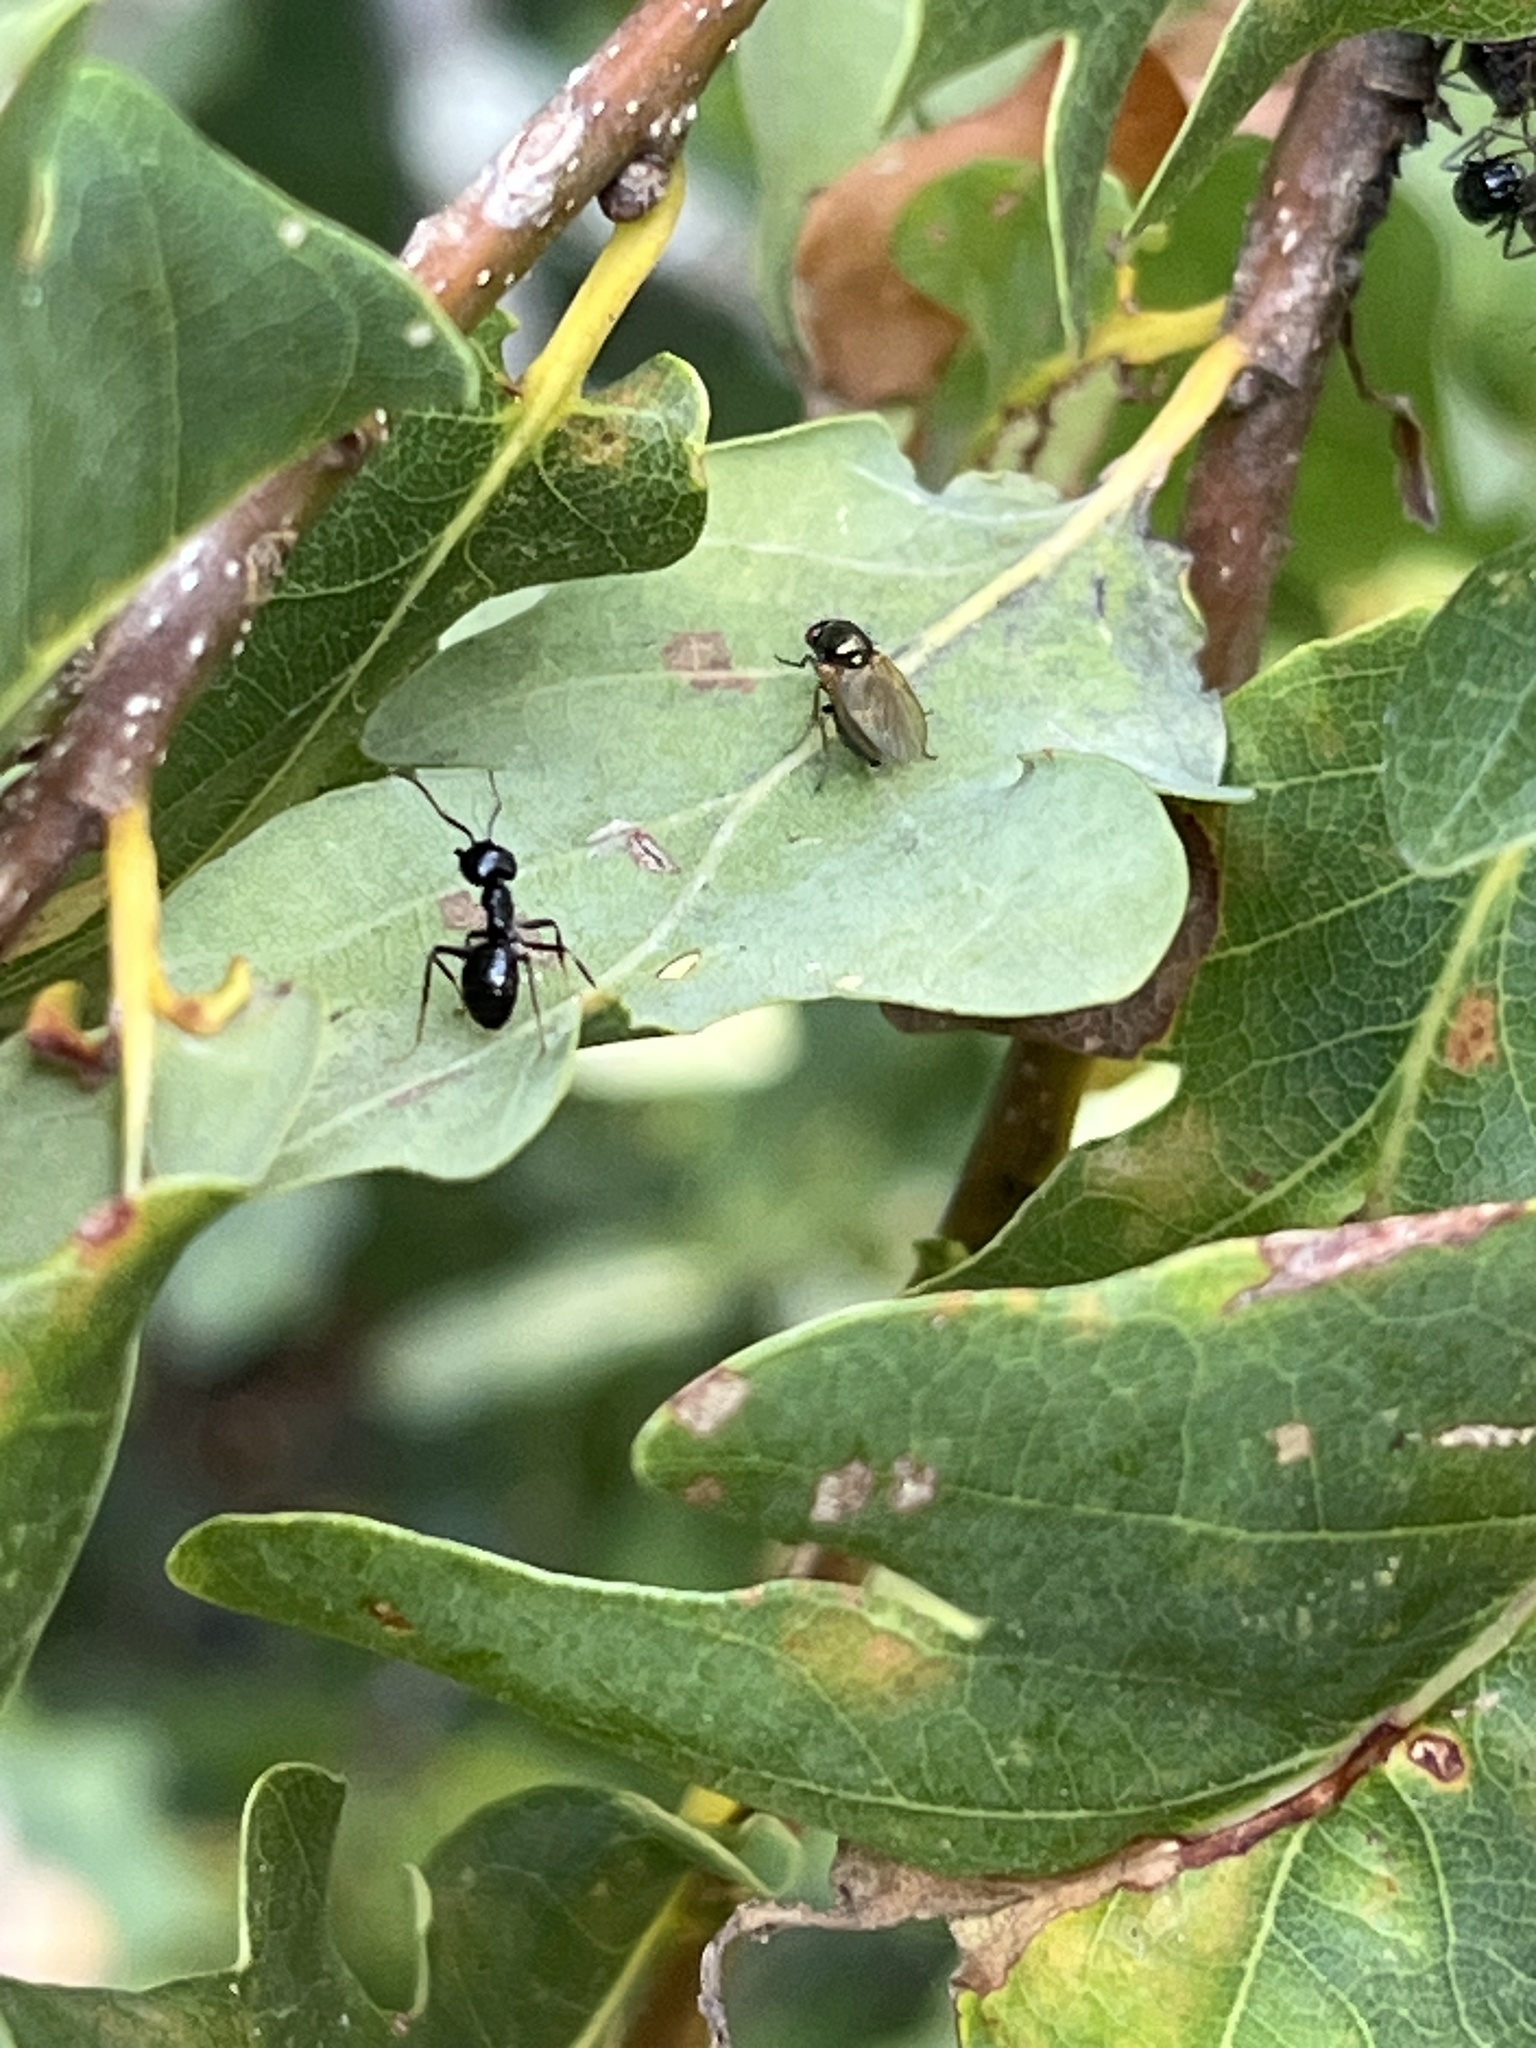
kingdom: Animalia
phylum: Arthropoda
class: Insecta
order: Hymenoptera
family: Formicidae
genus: Lasius
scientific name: Lasius fuliginosus
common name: Jet ant
